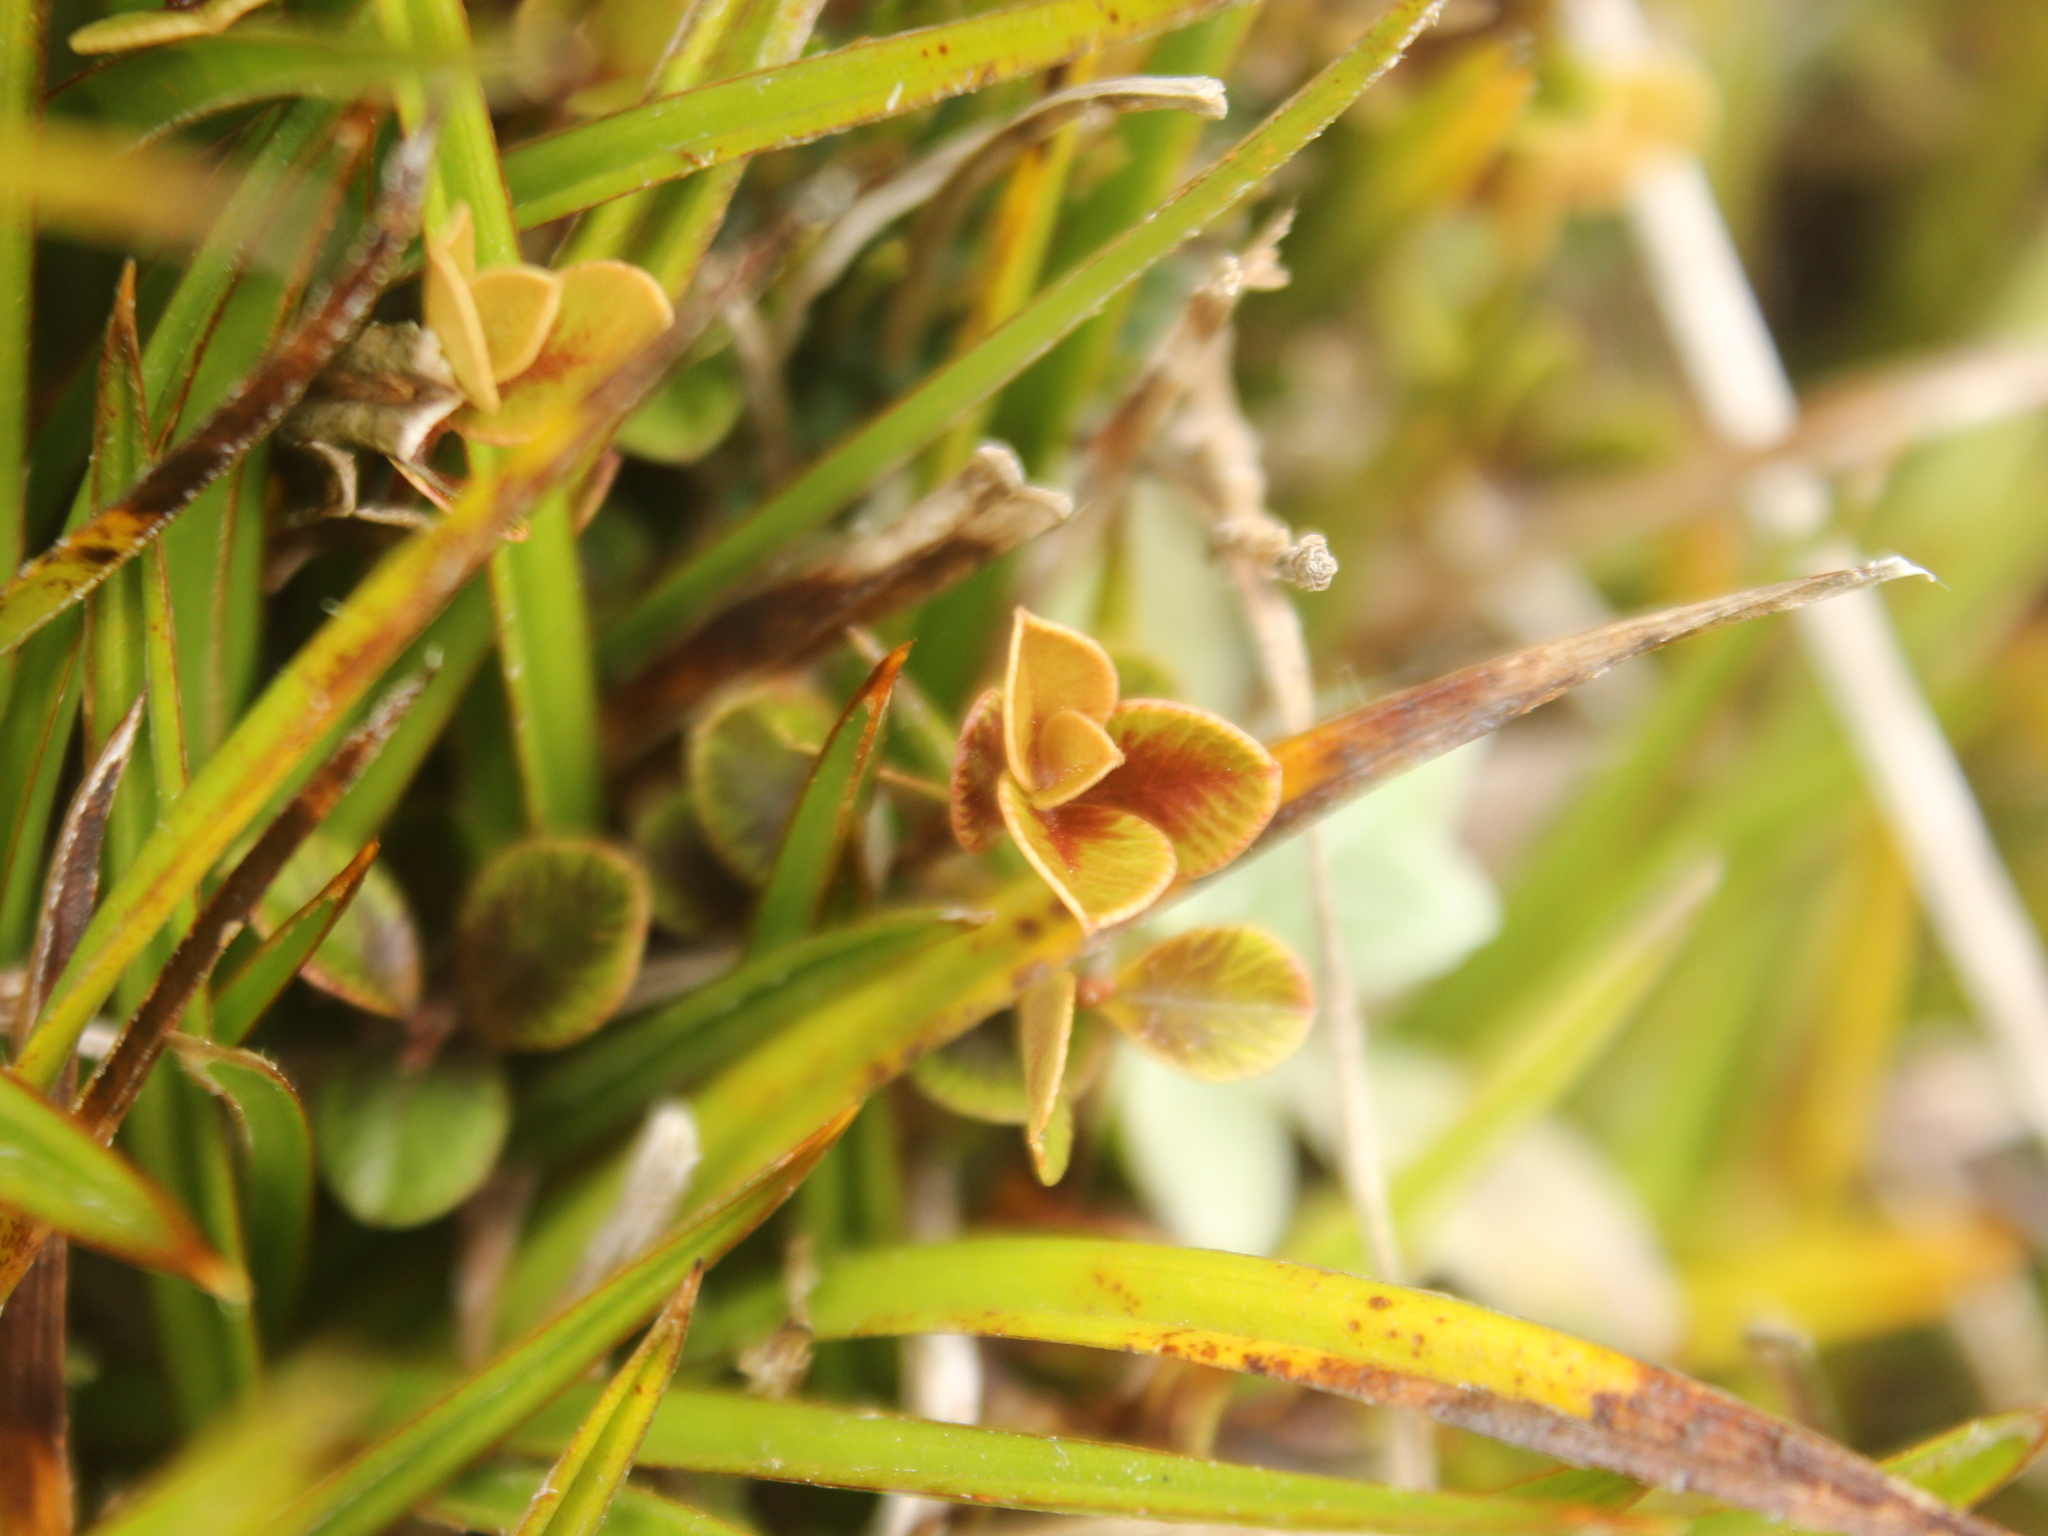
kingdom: Plantae
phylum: Tracheophyta
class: Magnoliopsida
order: Ericales
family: Primulaceae
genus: Myrsine
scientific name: Myrsine nummularia
